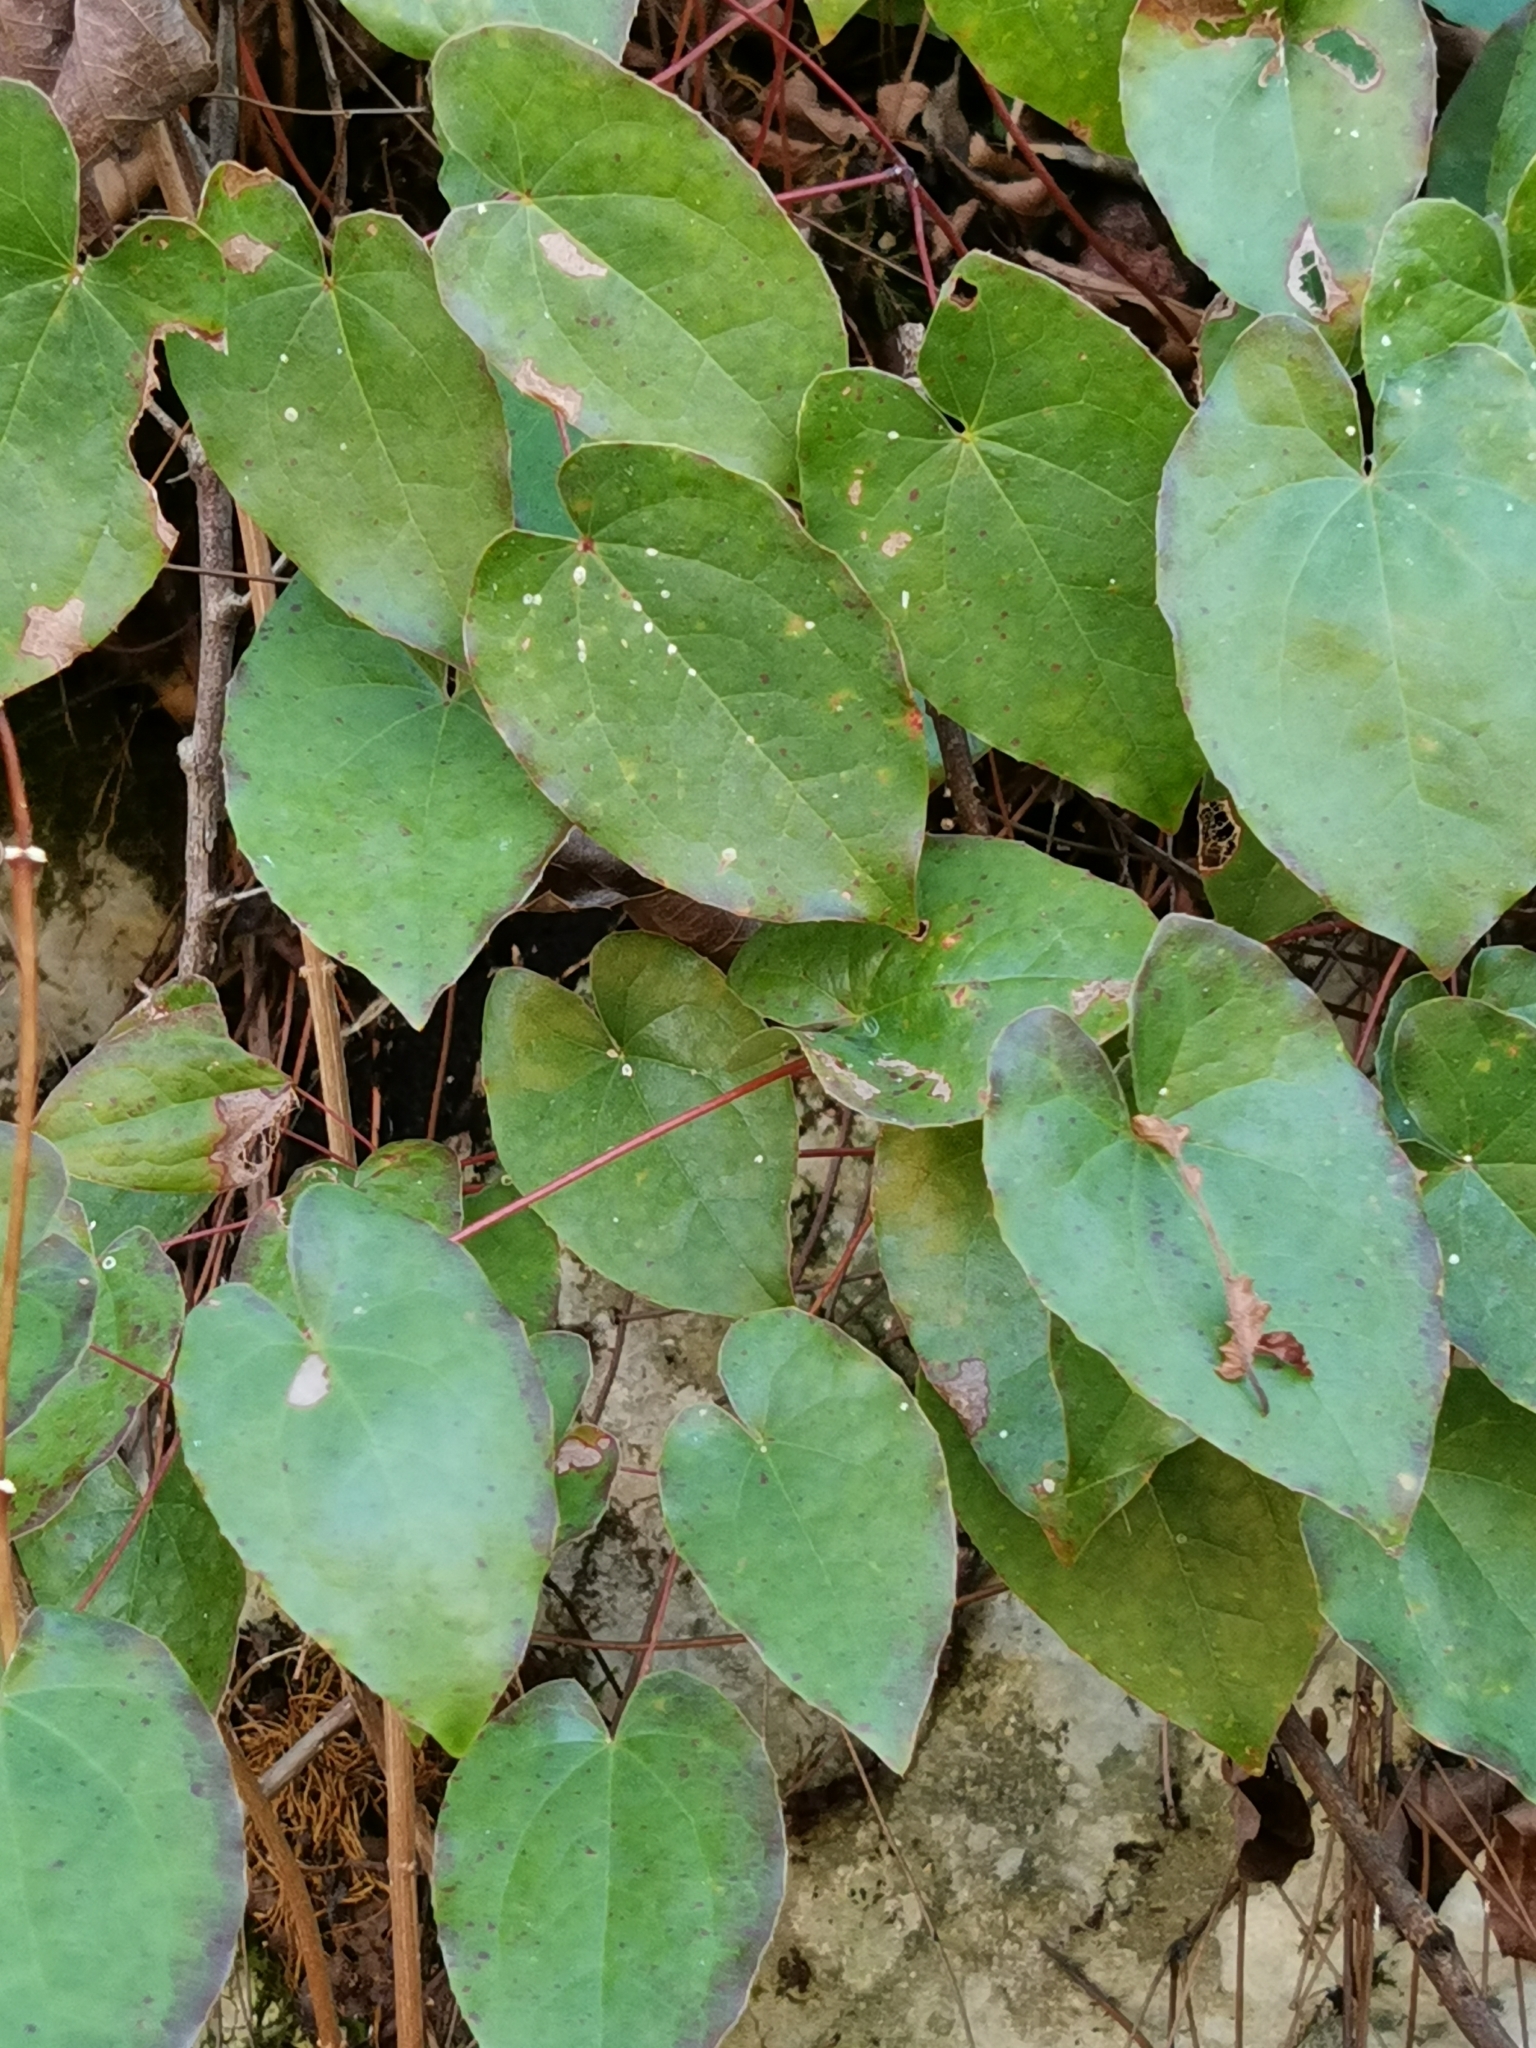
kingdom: Plantae
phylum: Tracheophyta
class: Magnoliopsida
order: Ranunculales
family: Berberidaceae
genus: Epimedium
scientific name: Epimedium pinnatum
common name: Caucasian barrenwort
